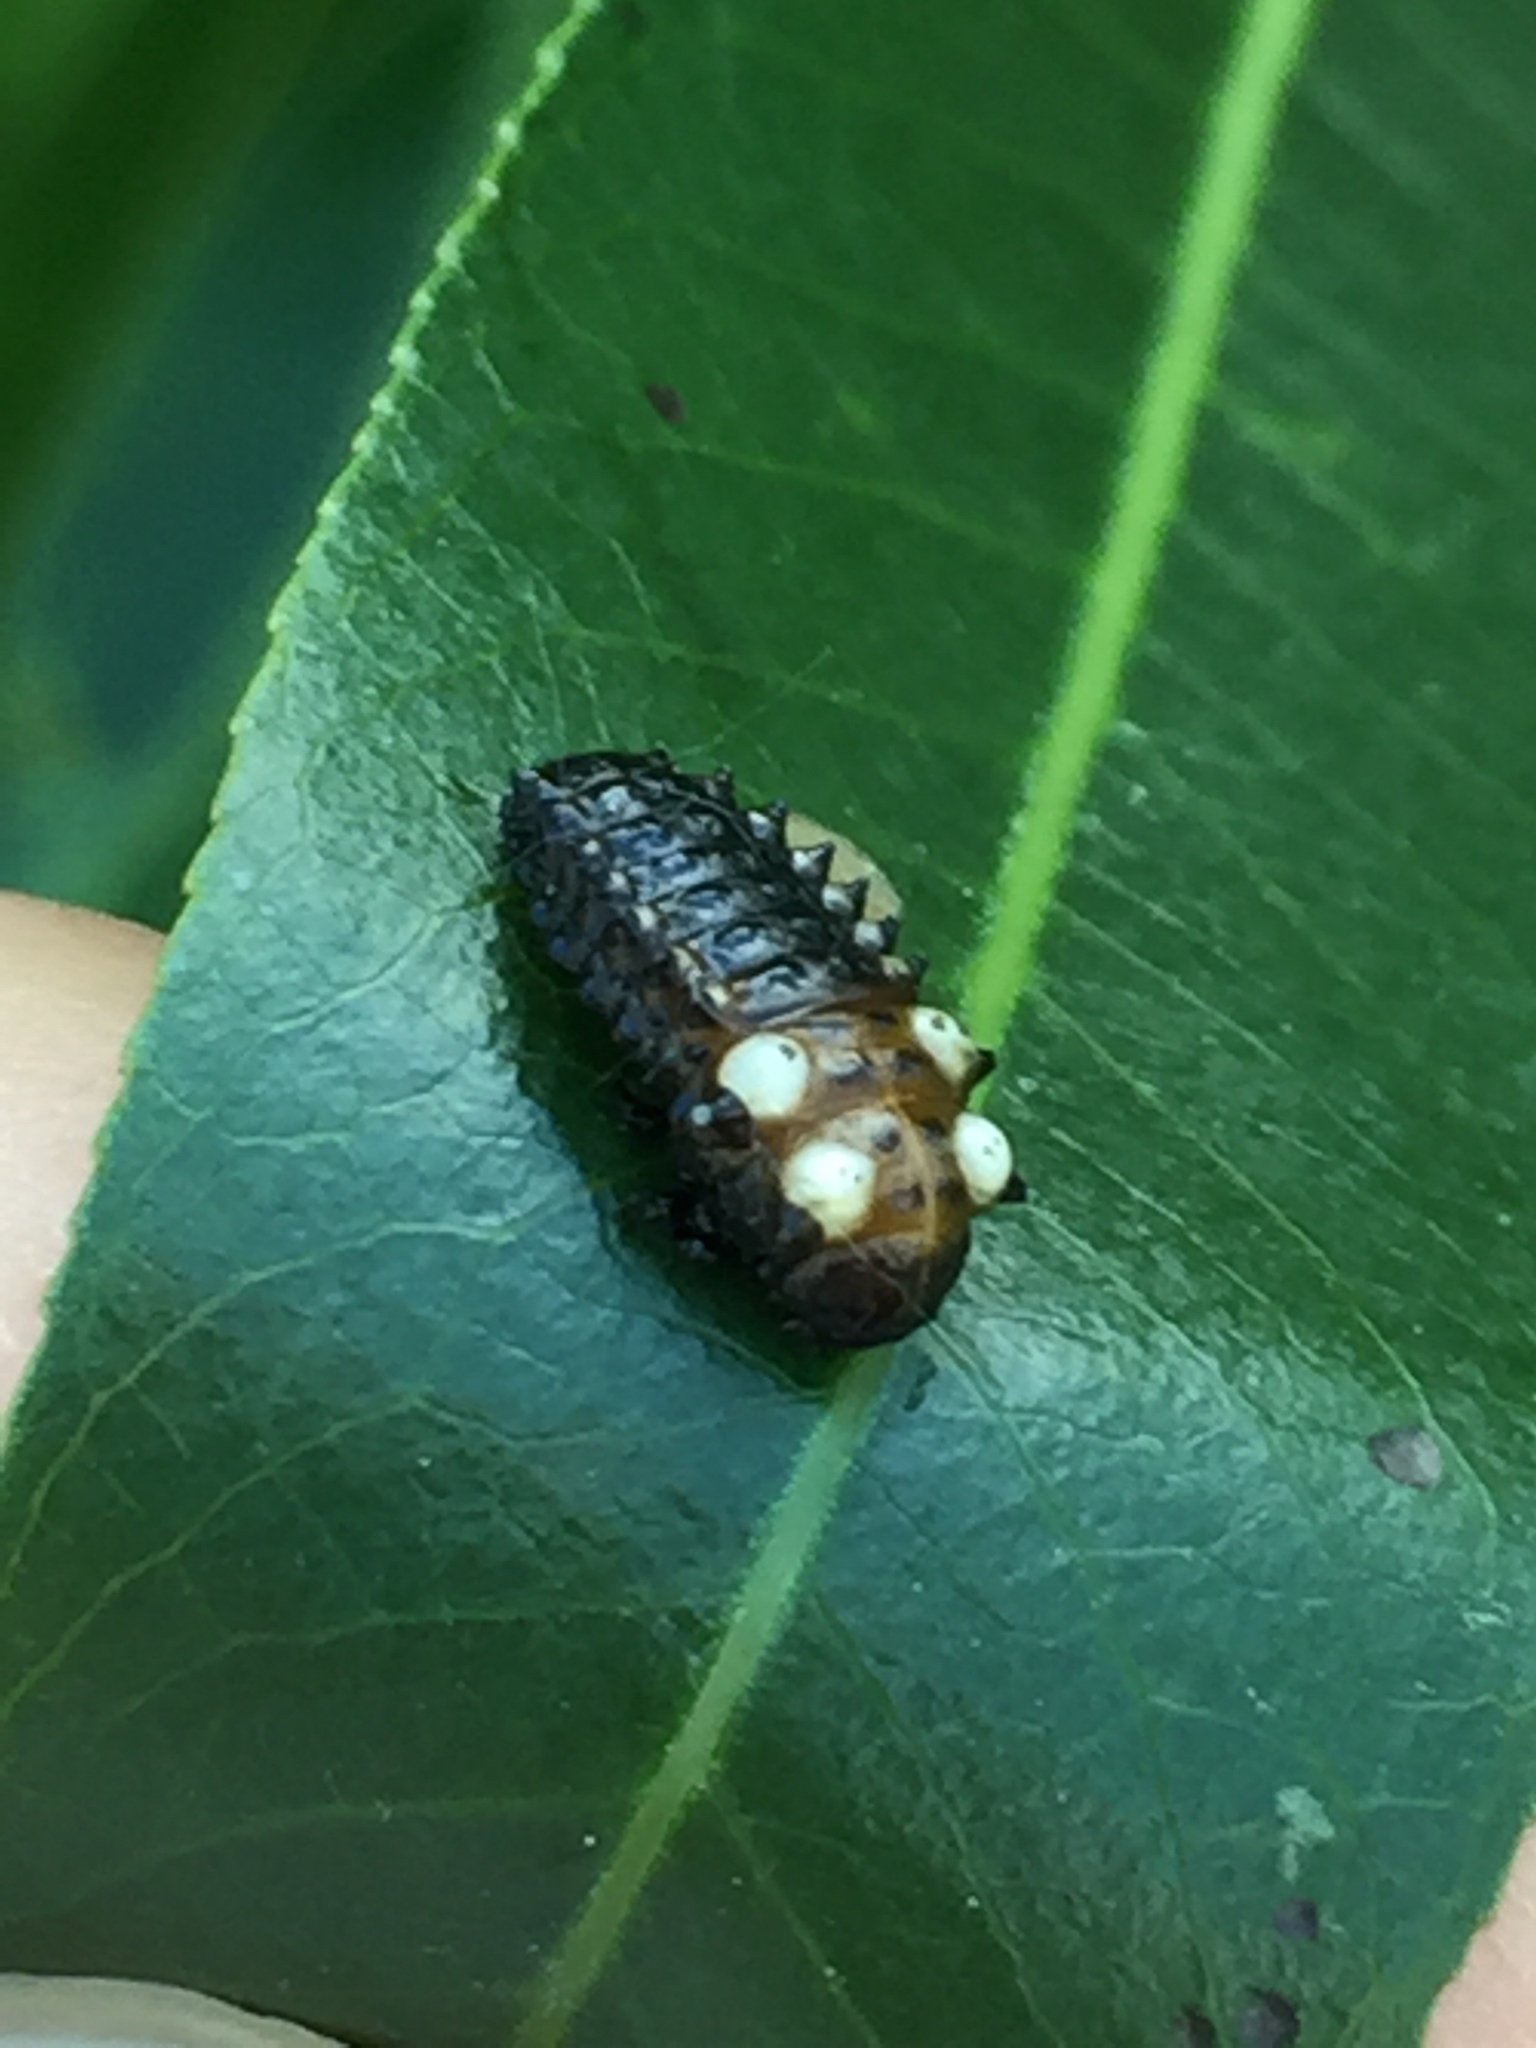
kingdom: Animalia
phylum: Arthropoda
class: Insecta
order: Coleoptera
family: Chrysomelidae
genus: Chrysomela
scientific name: Chrysomela confluens
